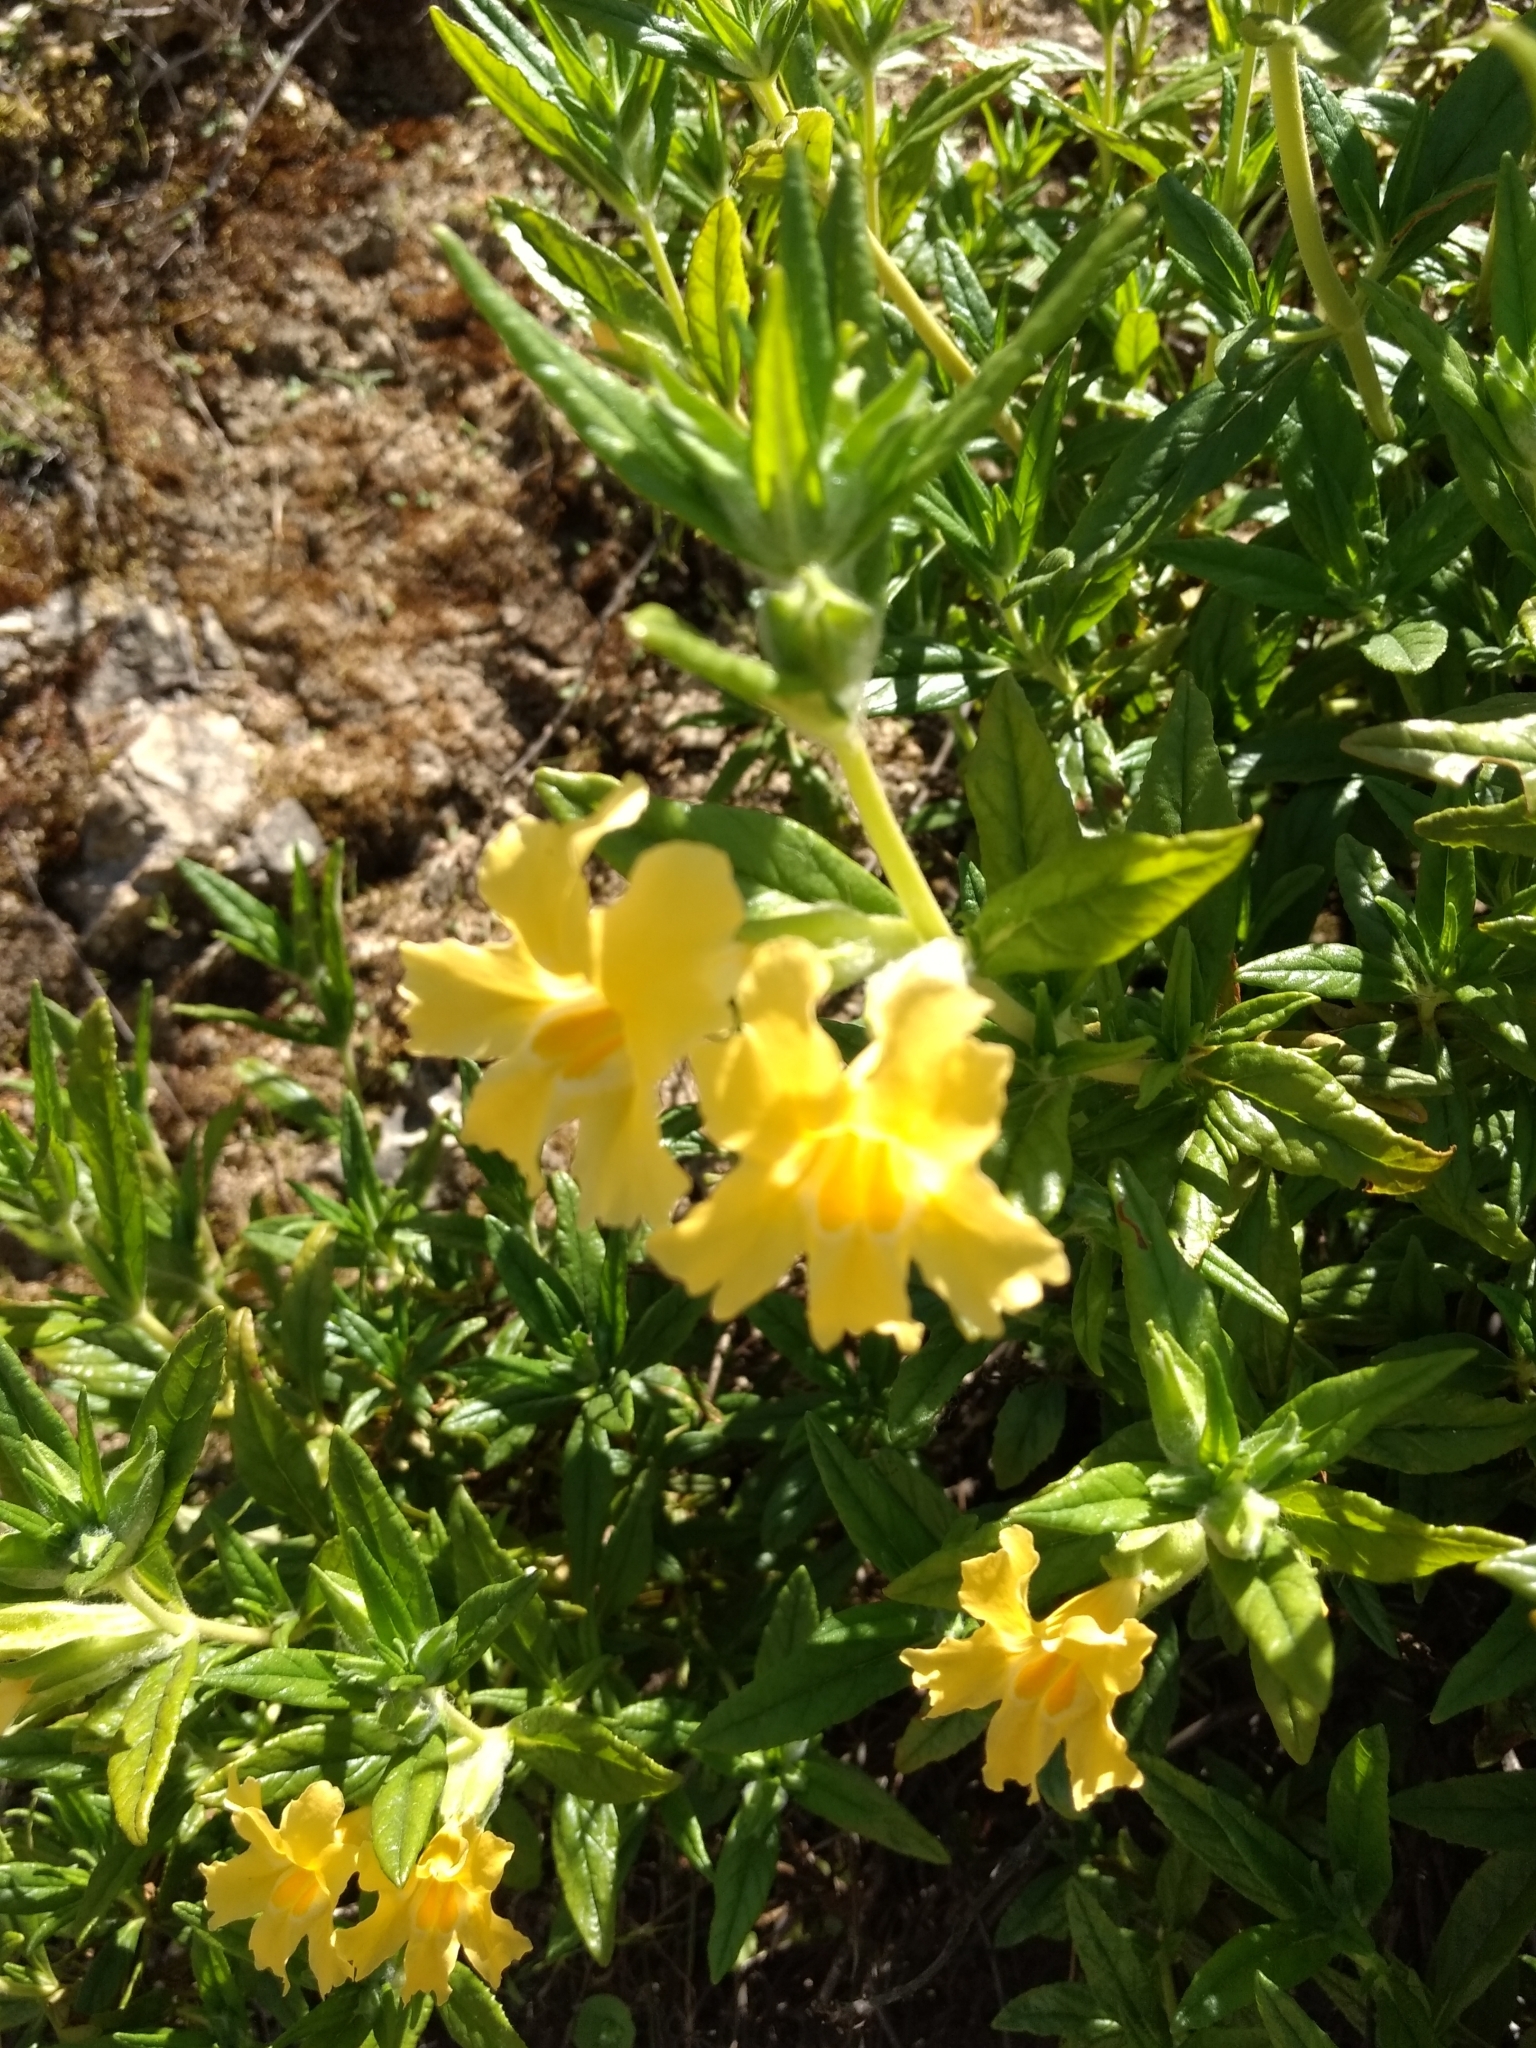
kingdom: Plantae
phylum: Tracheophyta
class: Magnoliopsida
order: Lamiales
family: Phrymaceae
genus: Diplacus
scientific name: Diplacus longiflorus
